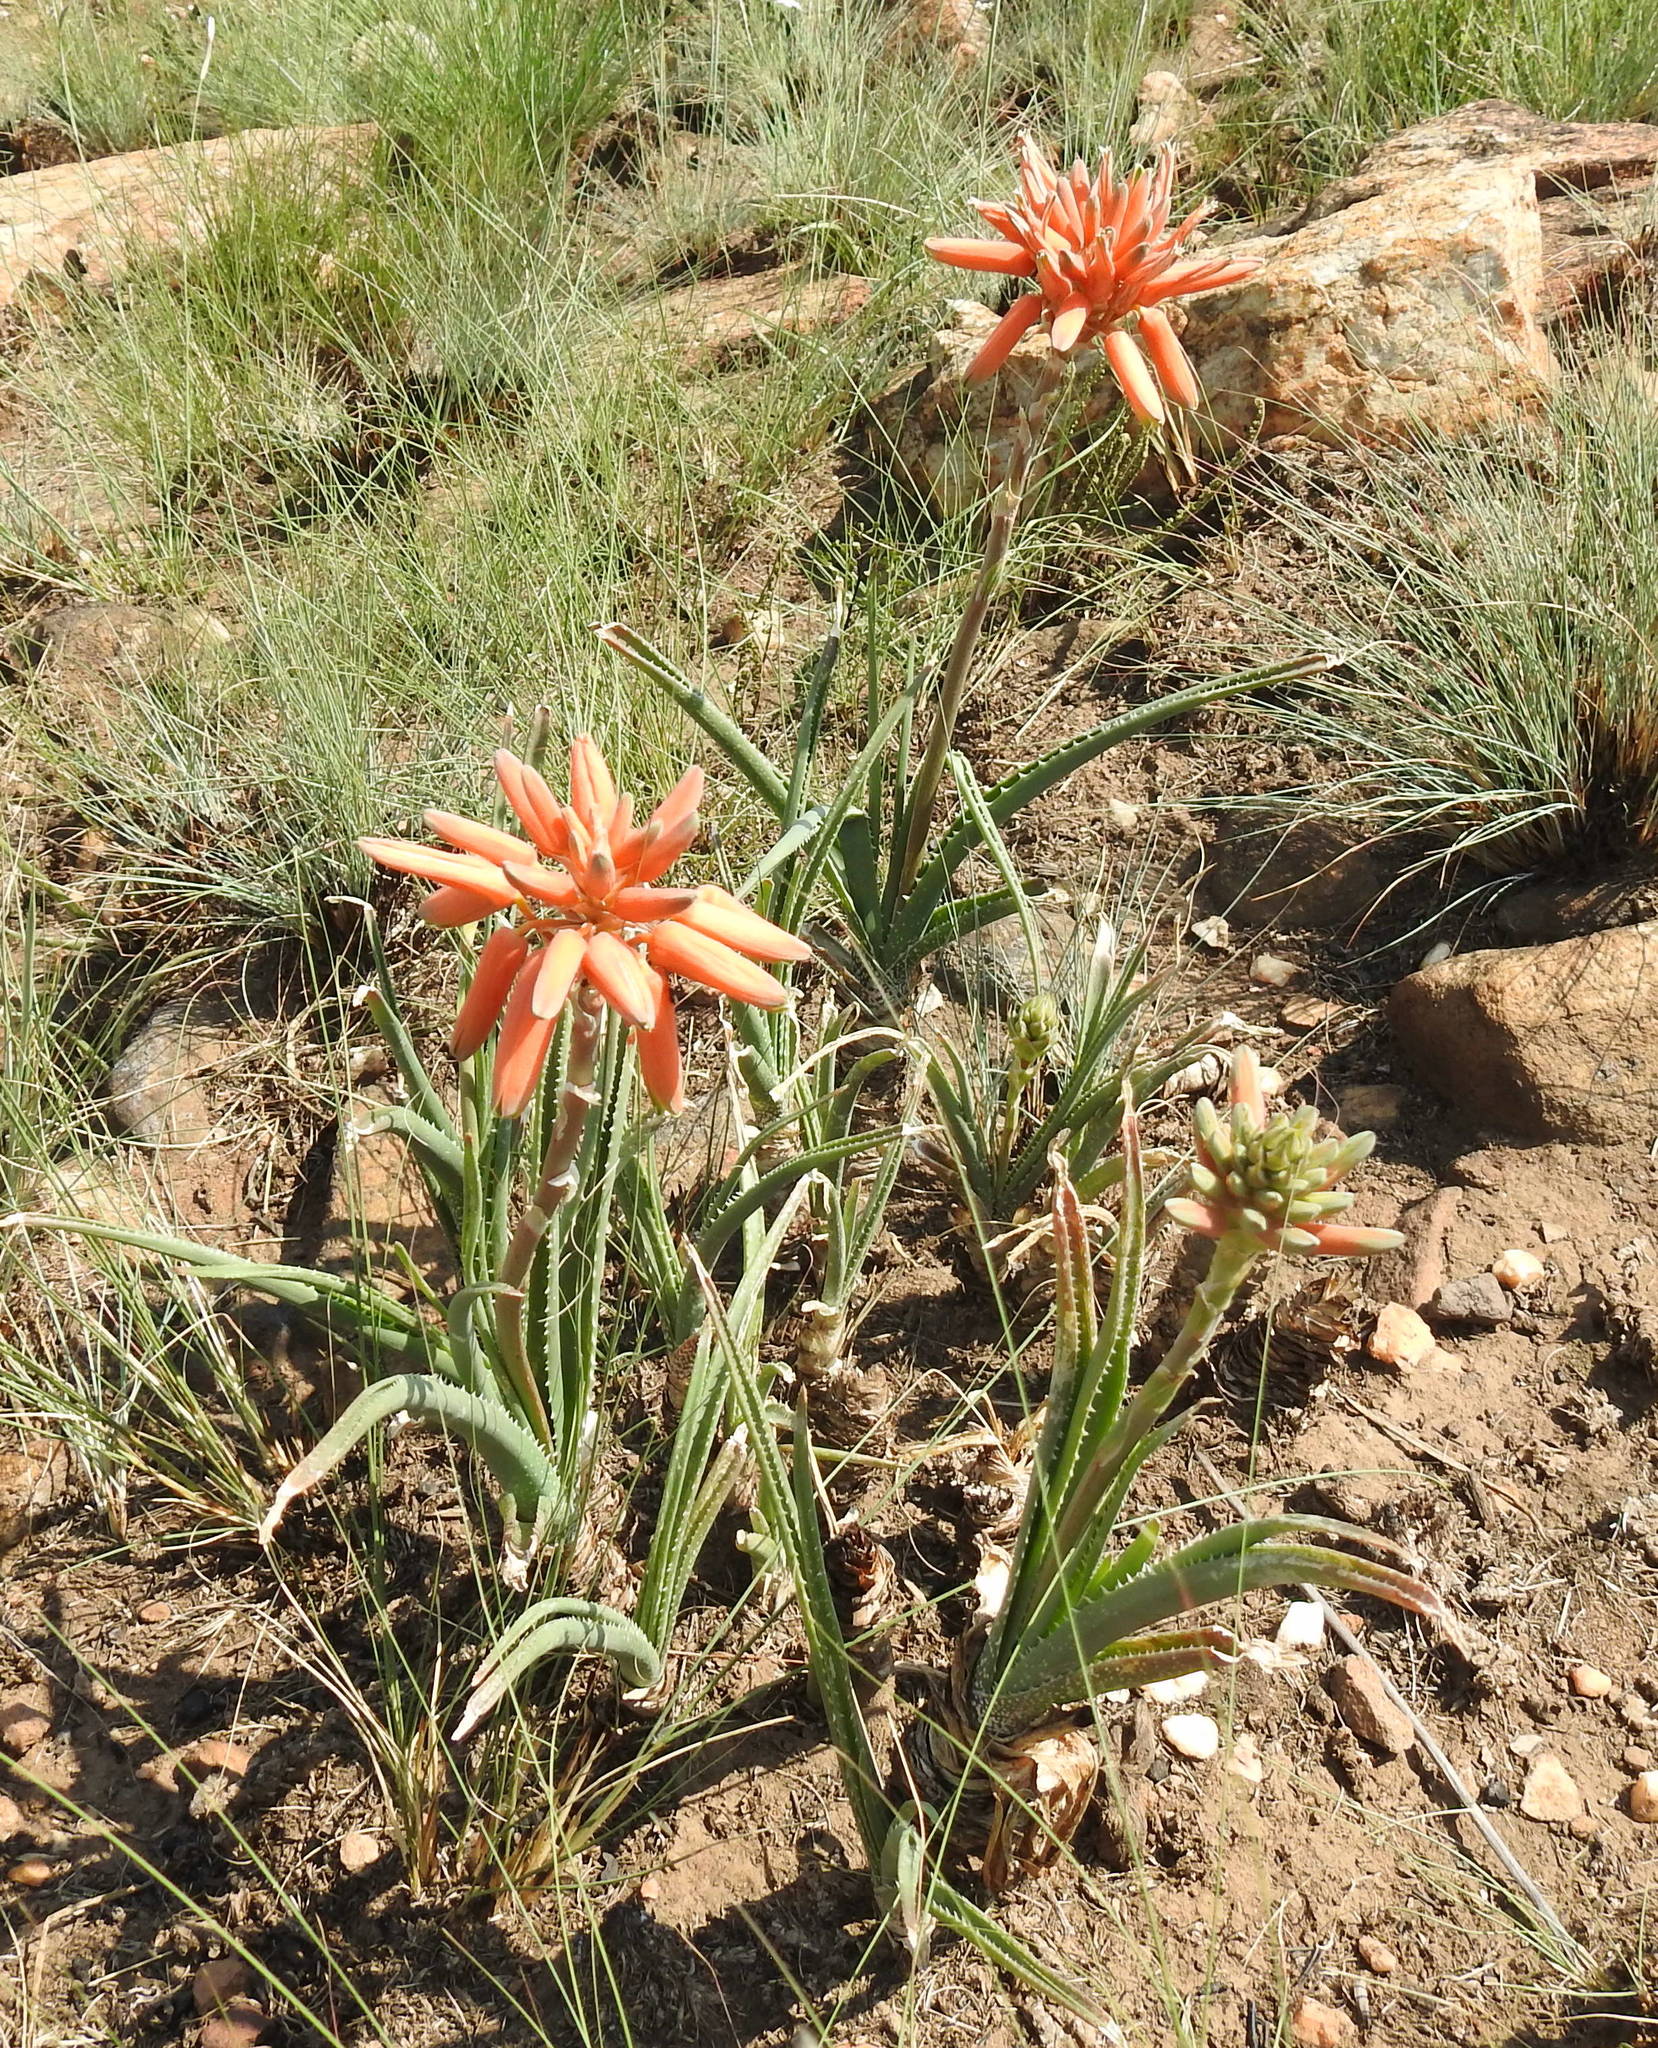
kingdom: Plantae
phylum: Tracheophyta
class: Liliopsida
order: Asparagales
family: Asphodelaceae
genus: Aloe
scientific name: Aloe verecunda
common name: Grass aloe
